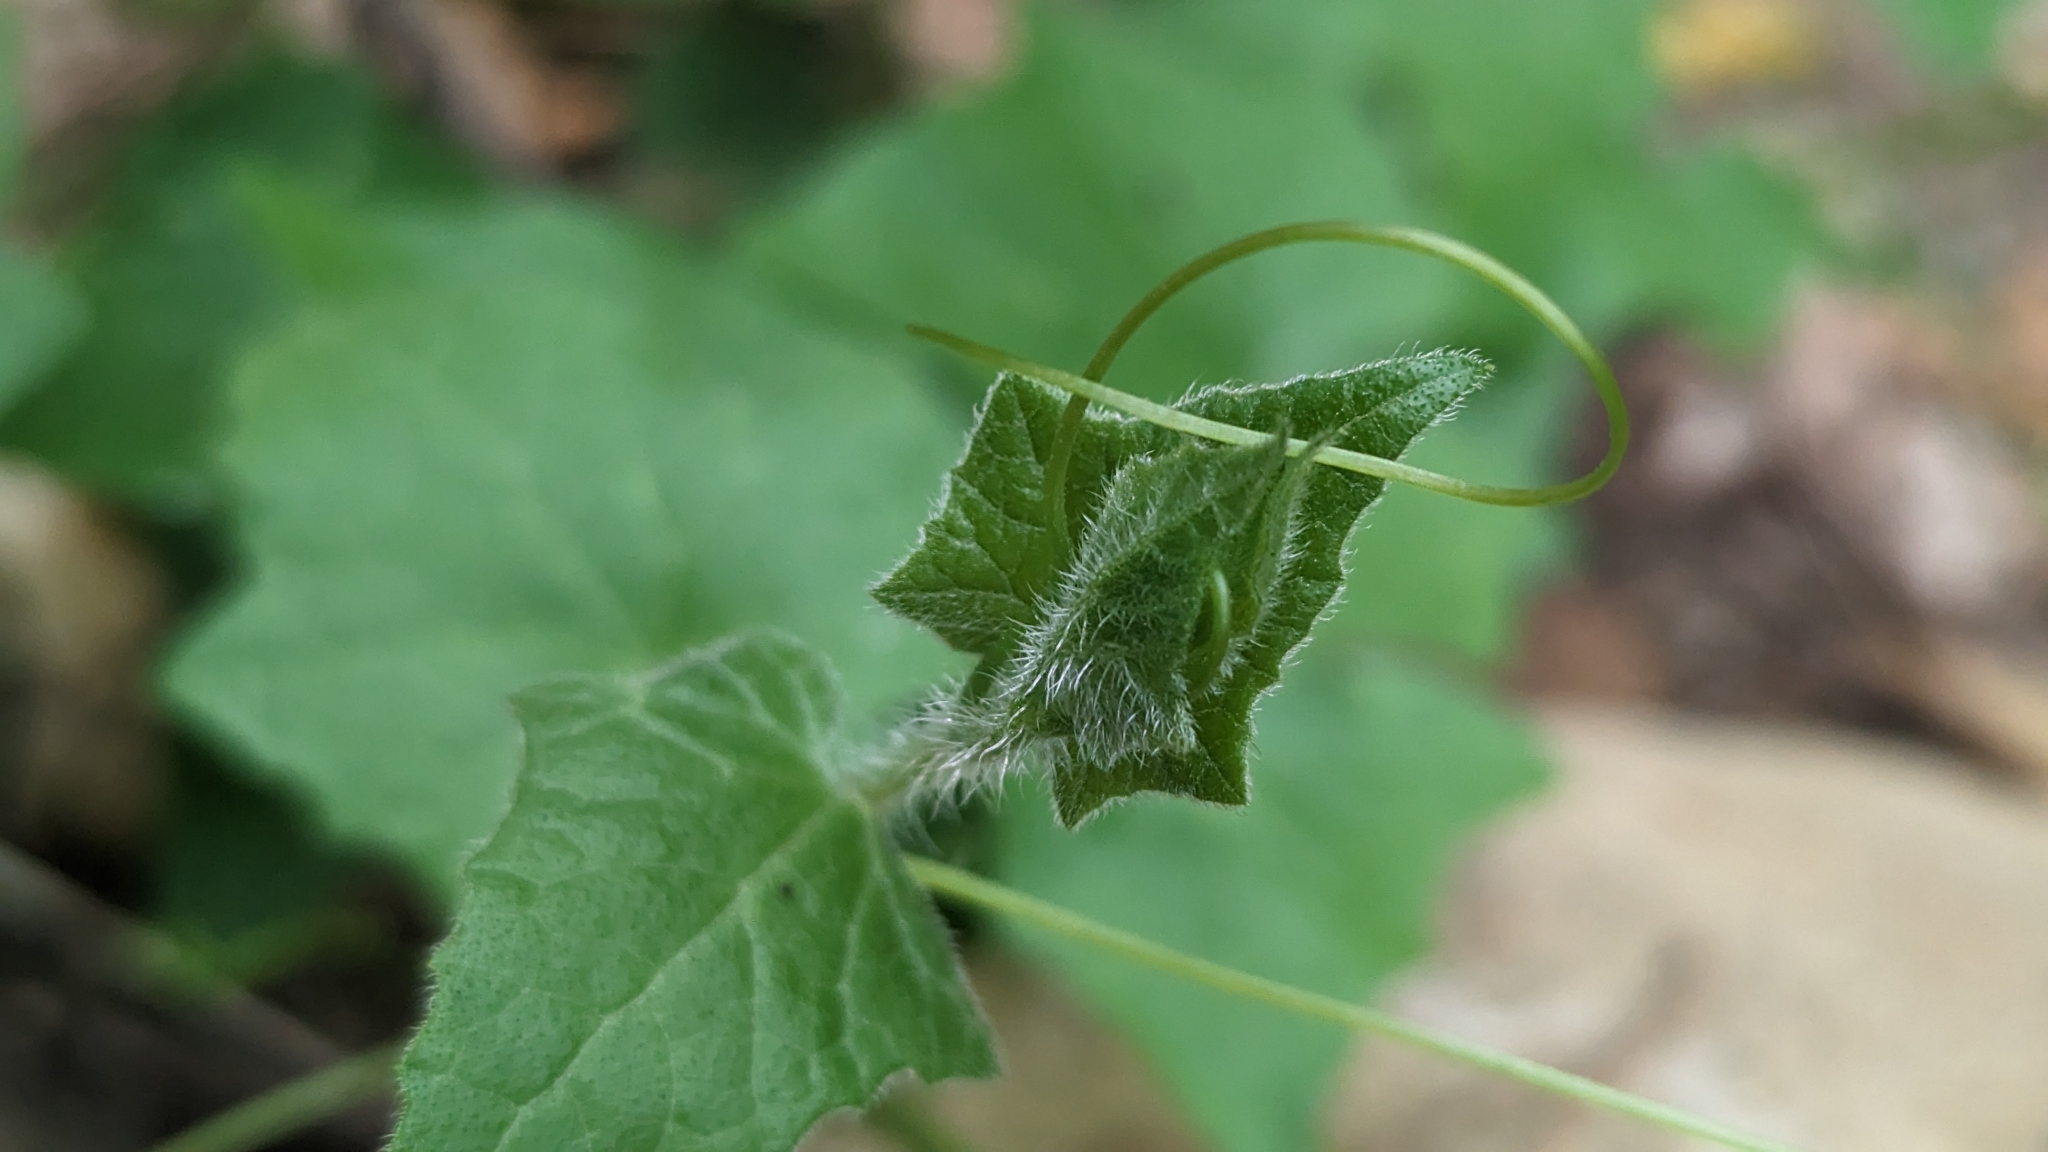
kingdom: Plantae
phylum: Tracheophyta
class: Magnoliopsida
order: Cucurbitales
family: Cucurbitaceae
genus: Bryonia
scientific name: Bryonia cretica
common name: Cretan bryony
